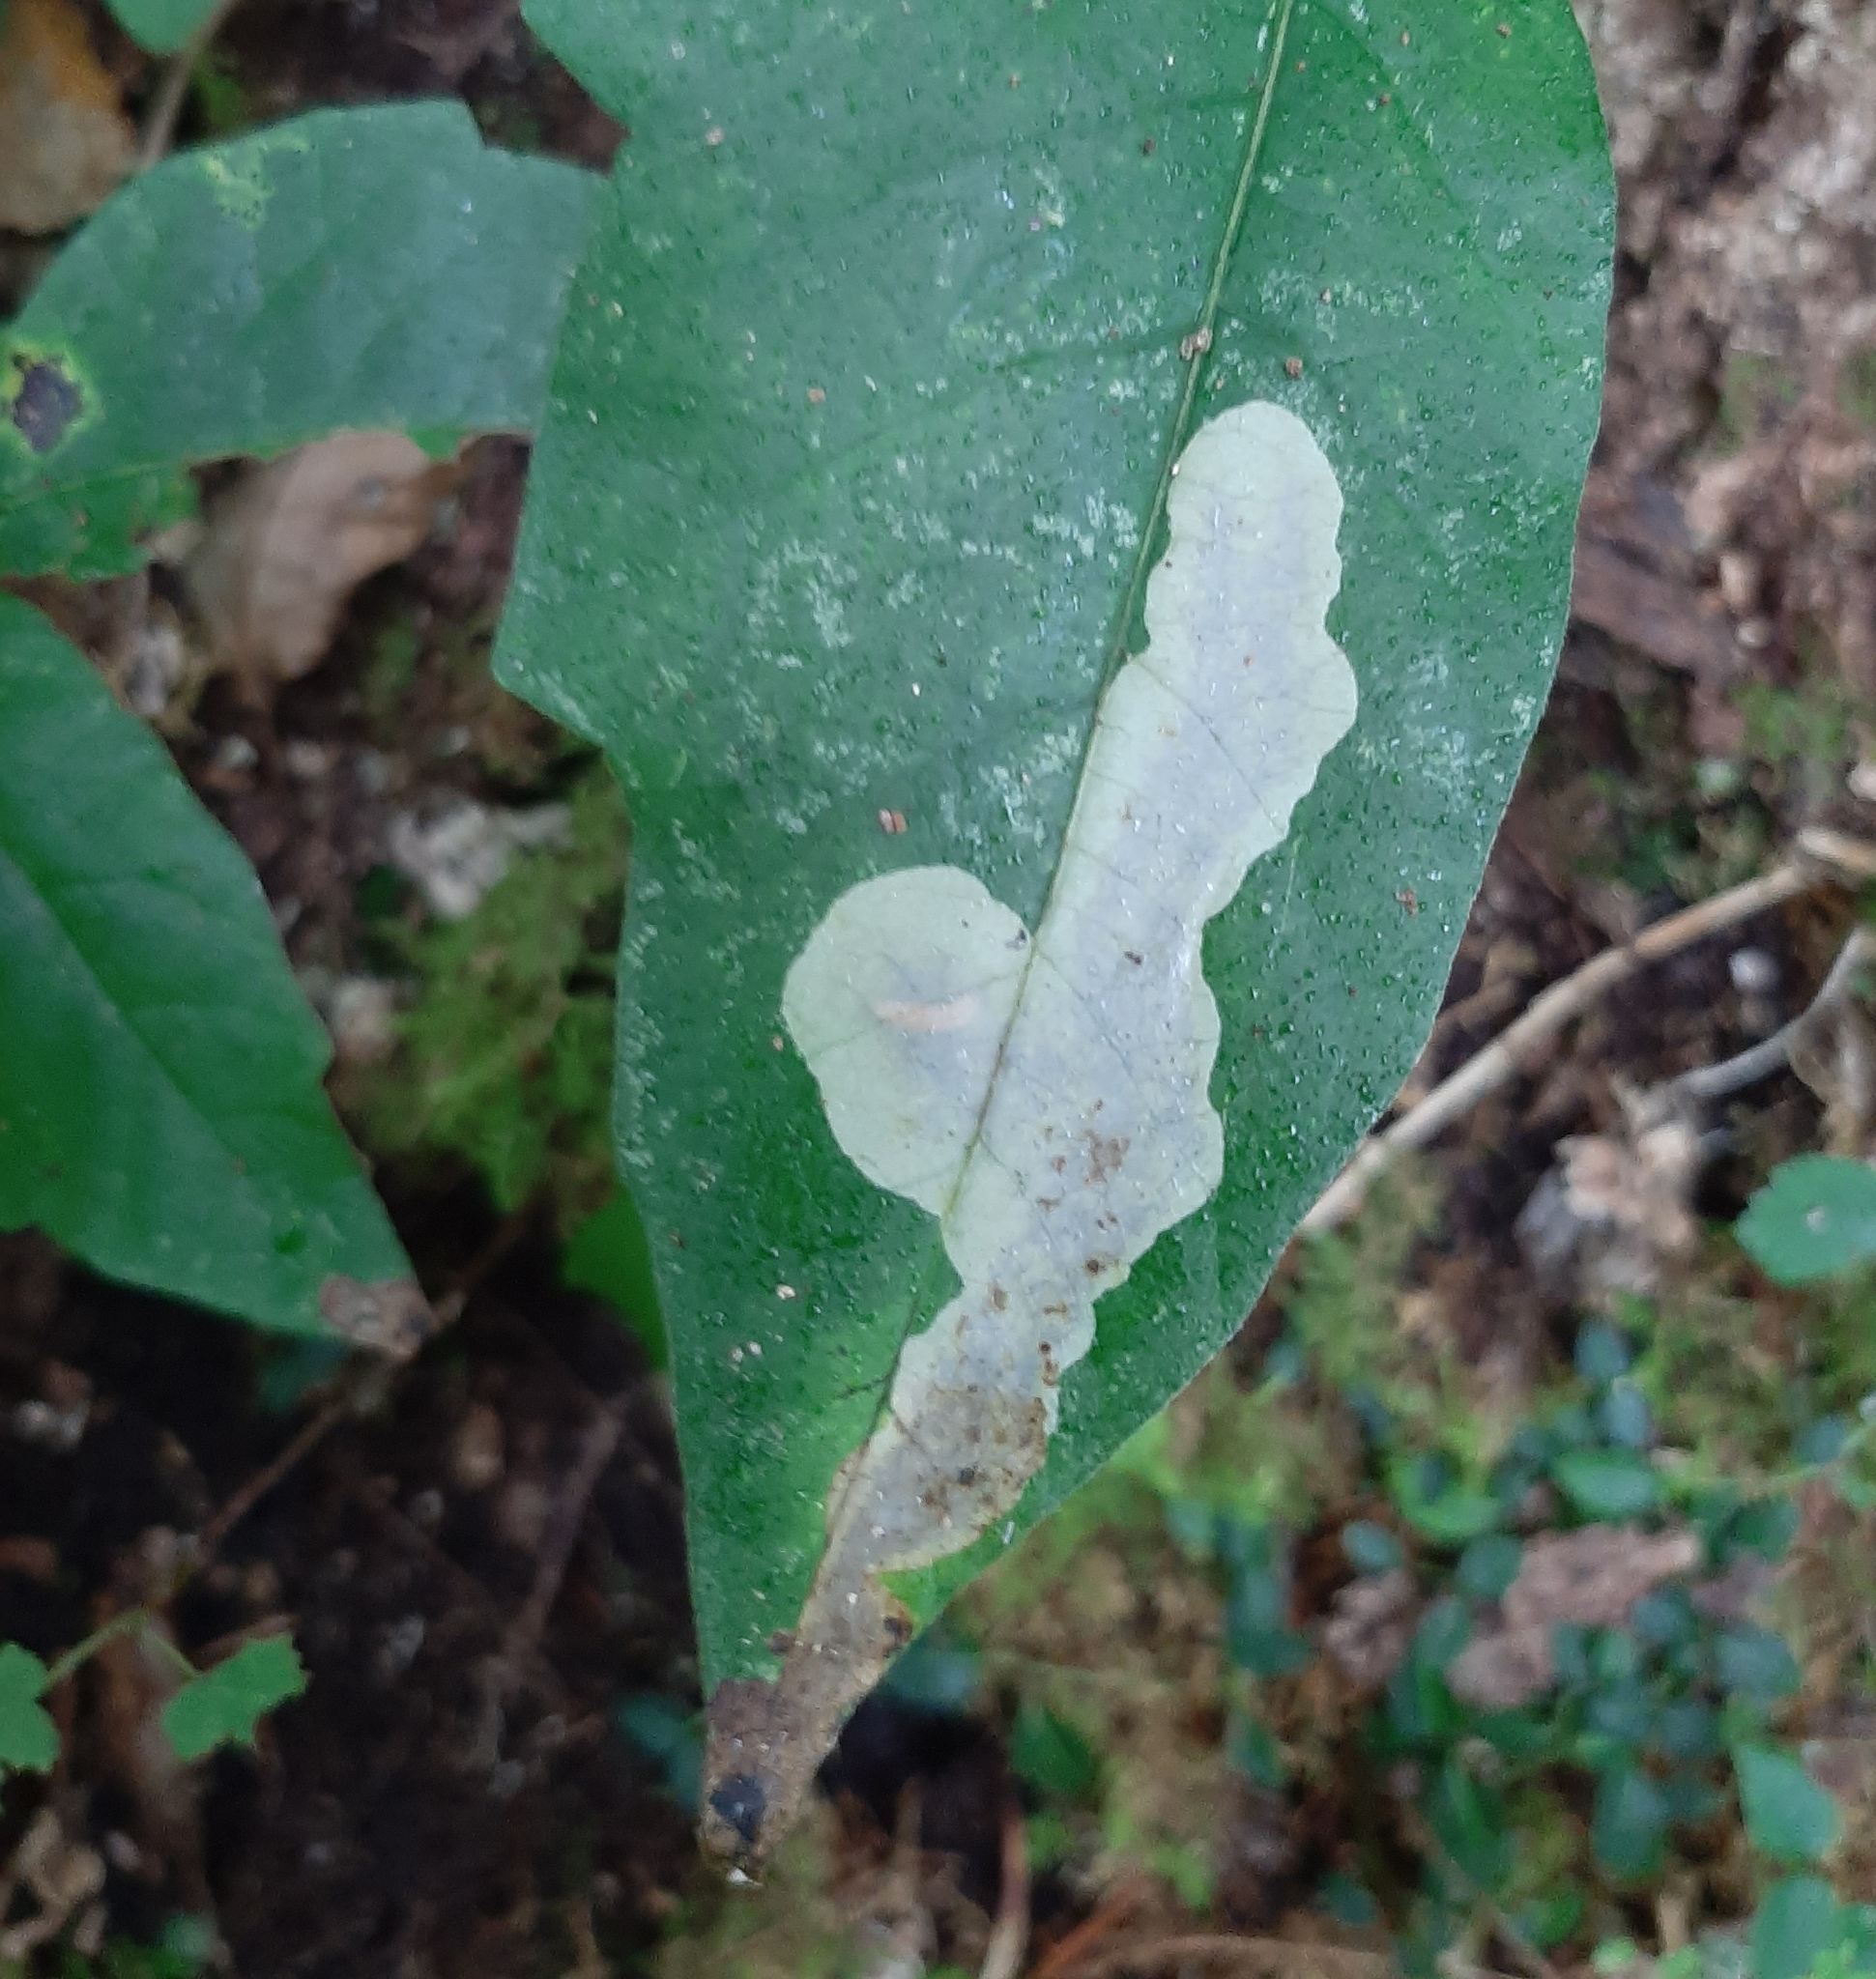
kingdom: Animalia
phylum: Arthropoda
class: Insecta
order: Lepidoptera
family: Gracillariidae
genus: Cameraria
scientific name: Cameraria guttifinitella
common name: Poison ivy leaf-miner moth
